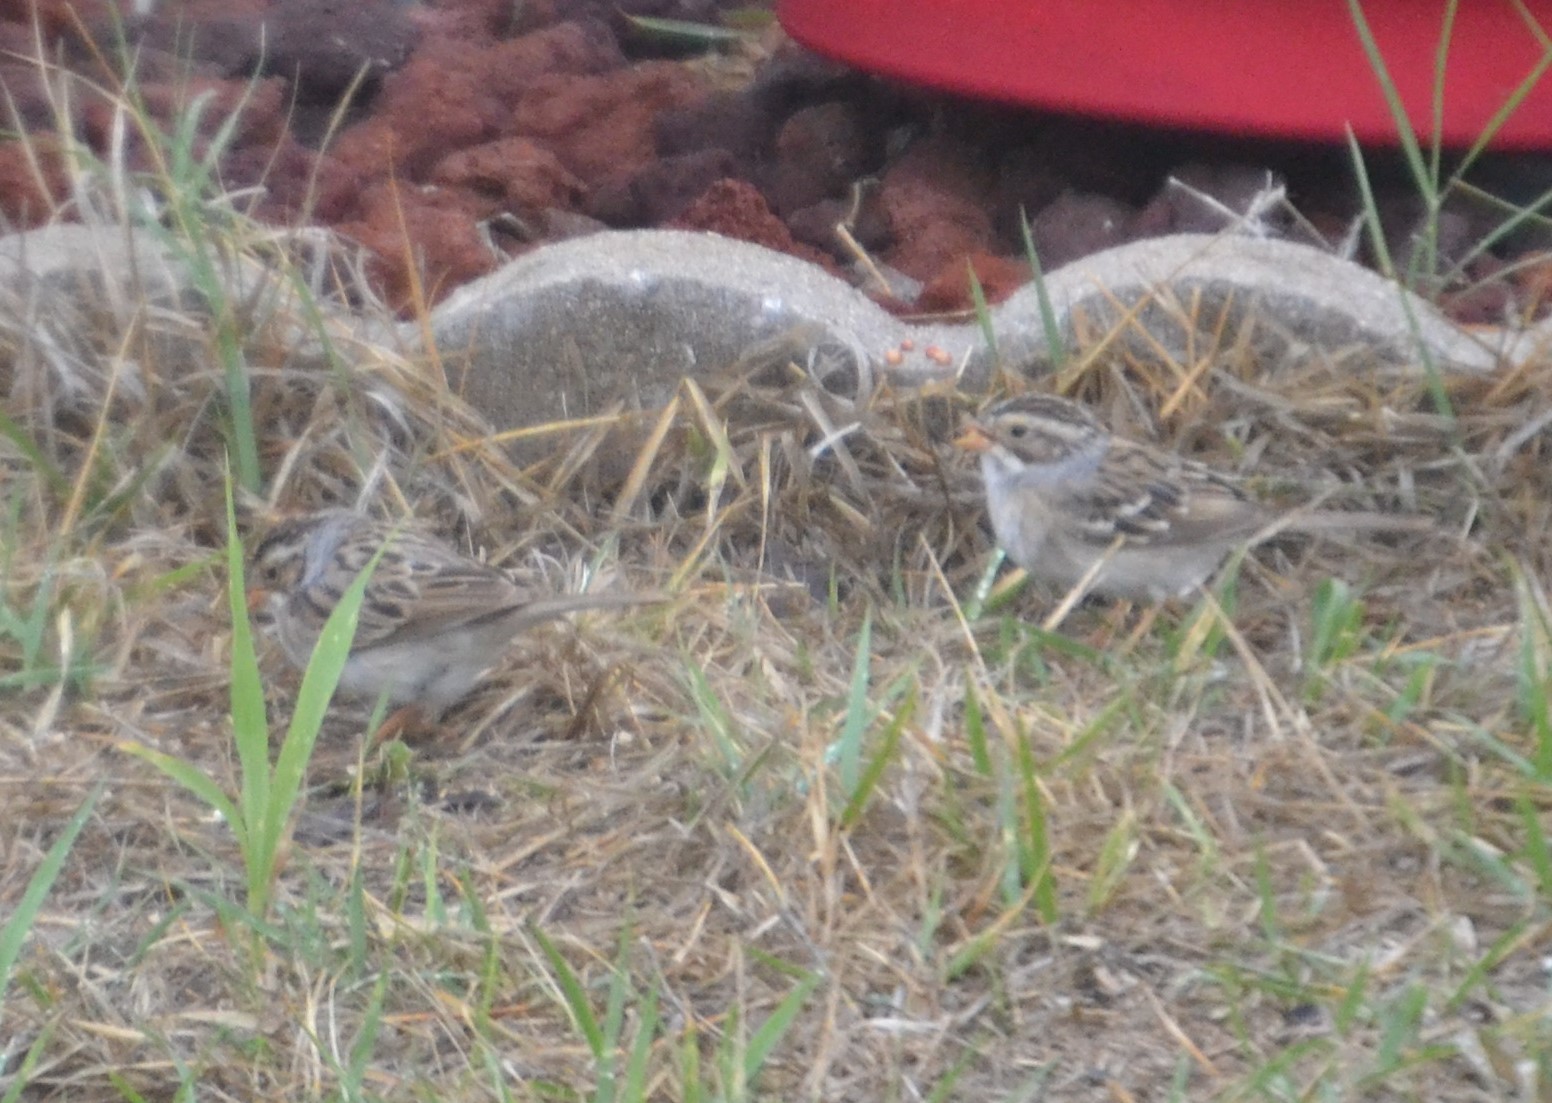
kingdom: Animalia
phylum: Chordata
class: Aves
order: Passeriformes
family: Passerellidae
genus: Spizella
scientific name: Spizella pallida
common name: Clay-colored sparrow
